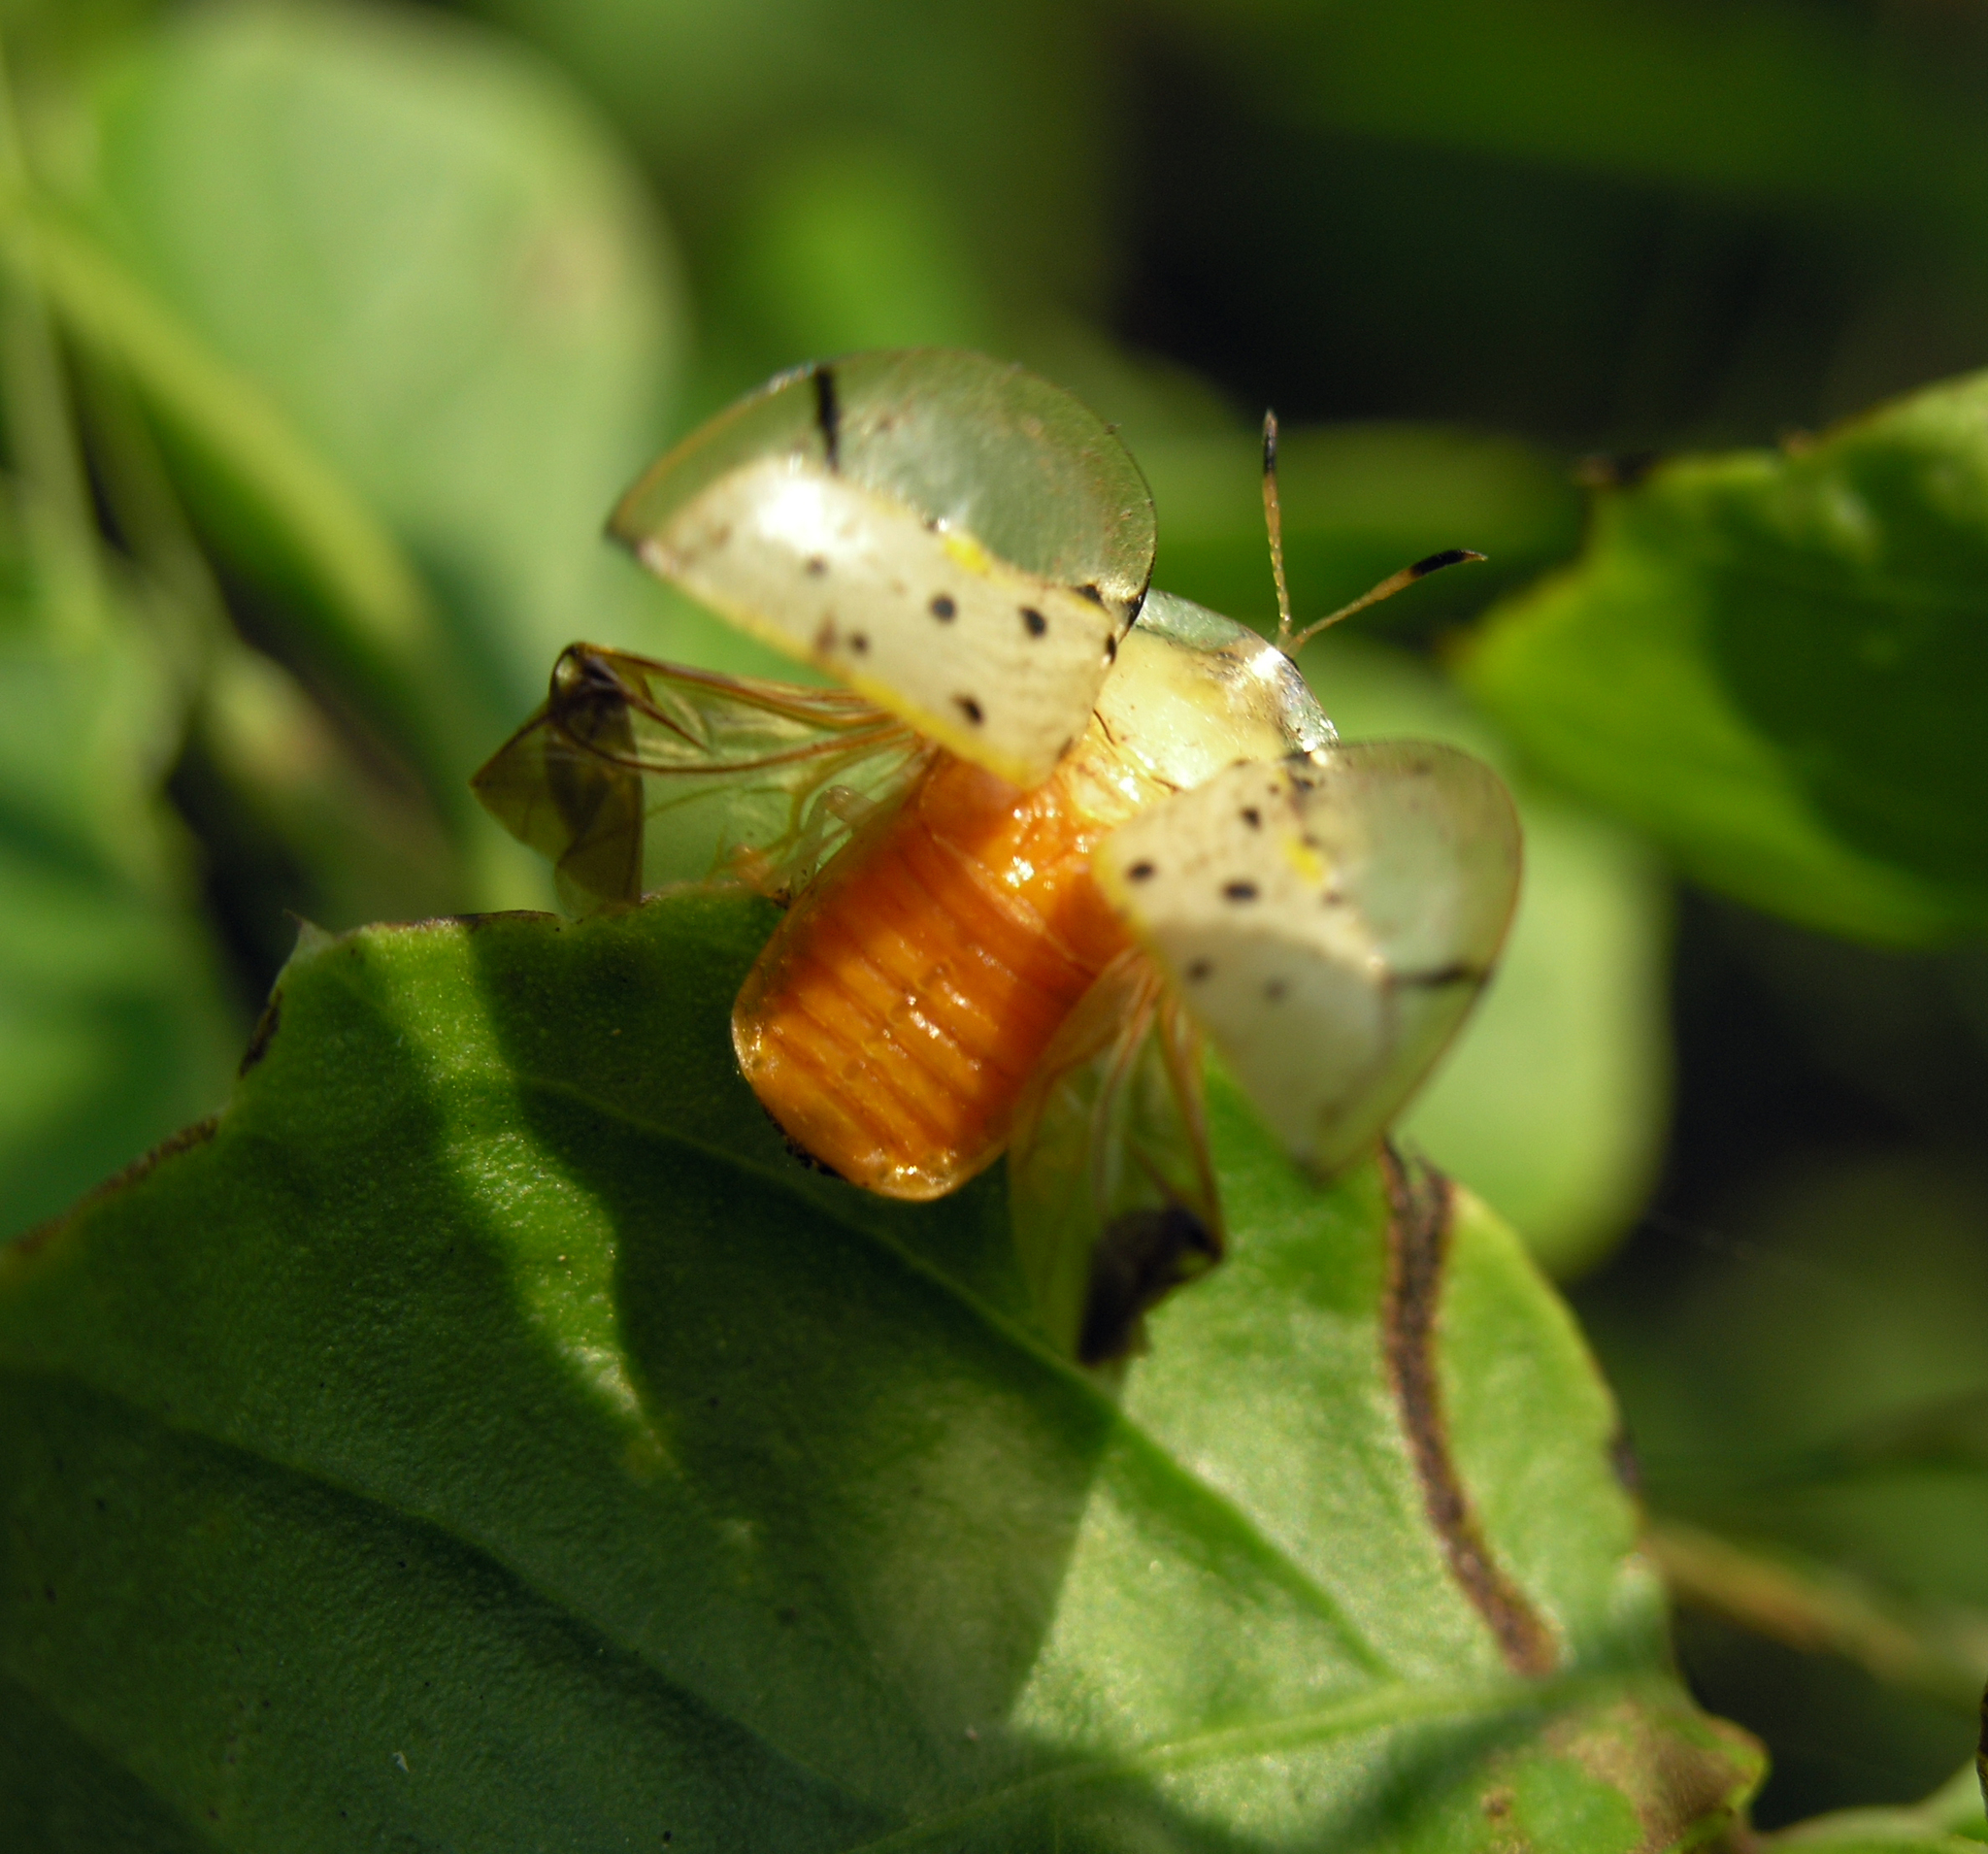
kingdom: Animalia
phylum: Arthropoda
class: Insecta
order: Coleoptera
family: Chrysomelidae
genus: Aspidimorpha
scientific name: Aspidimorpha miliaris
